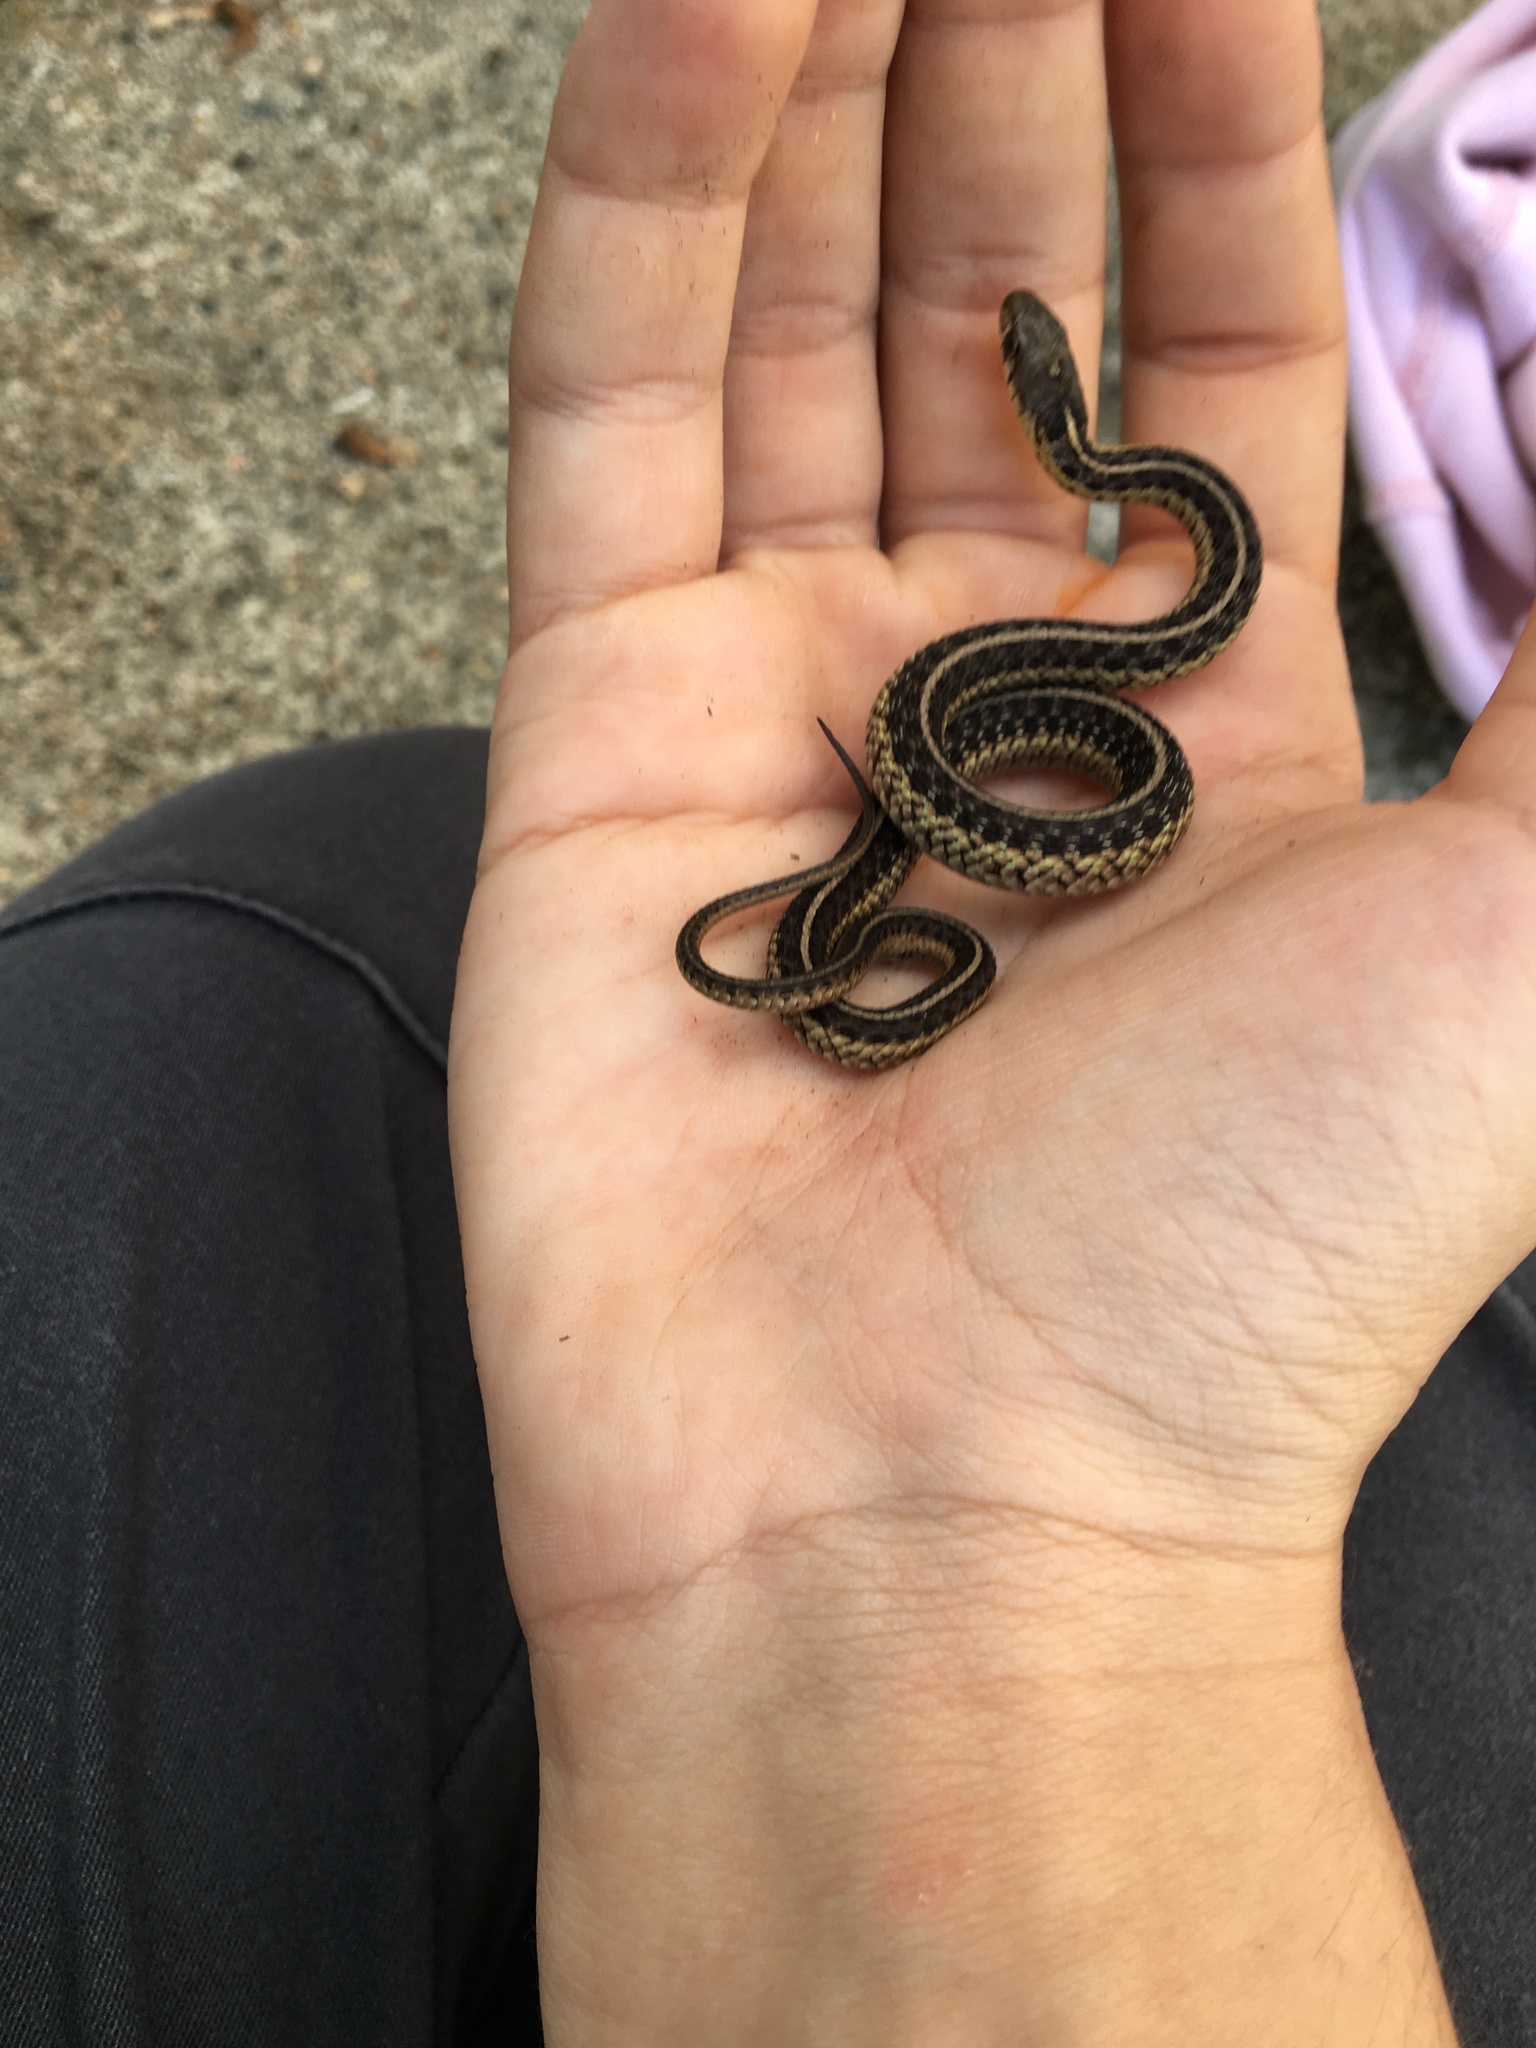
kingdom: Animalia
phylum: Chordata
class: Squamata
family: Colubridae
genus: Thamnophis
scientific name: Thamnophis sirtalis
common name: Common garter snake
